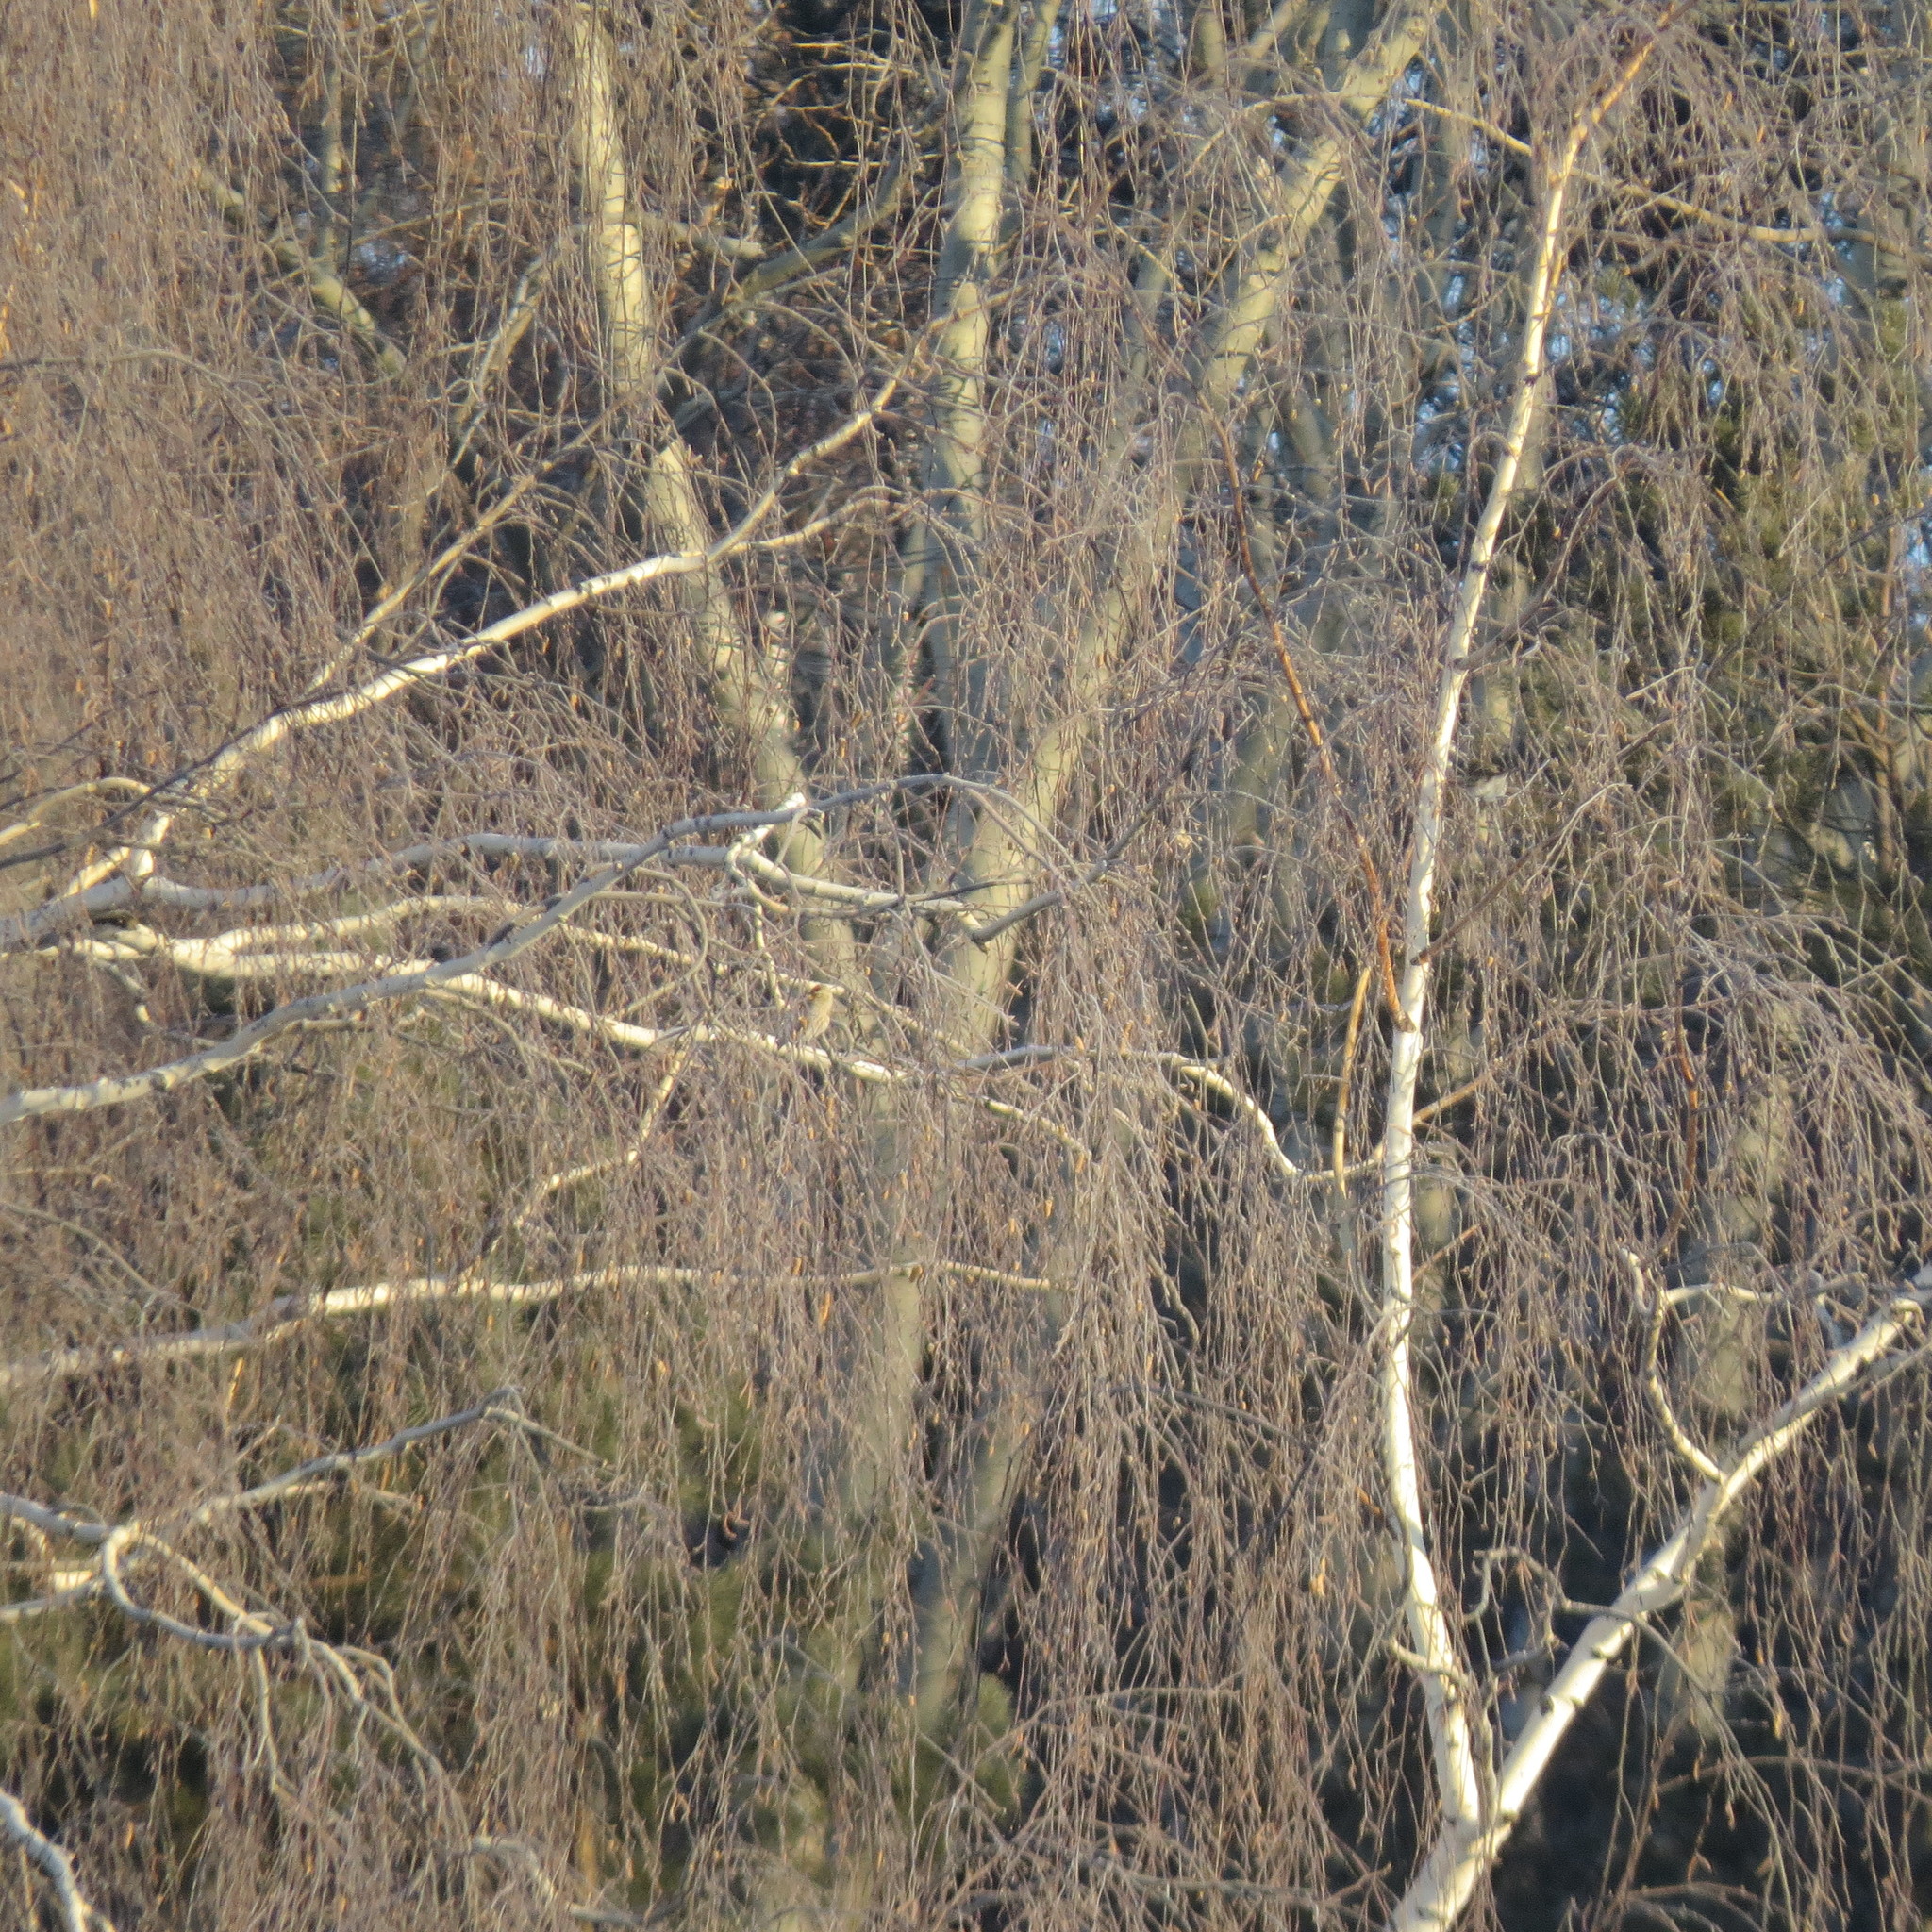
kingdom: Animalia
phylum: Chordata
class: Aves
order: Passeriformes
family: Fringillidae
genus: Acanthis
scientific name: Acanthis flammea
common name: Common redpoll
